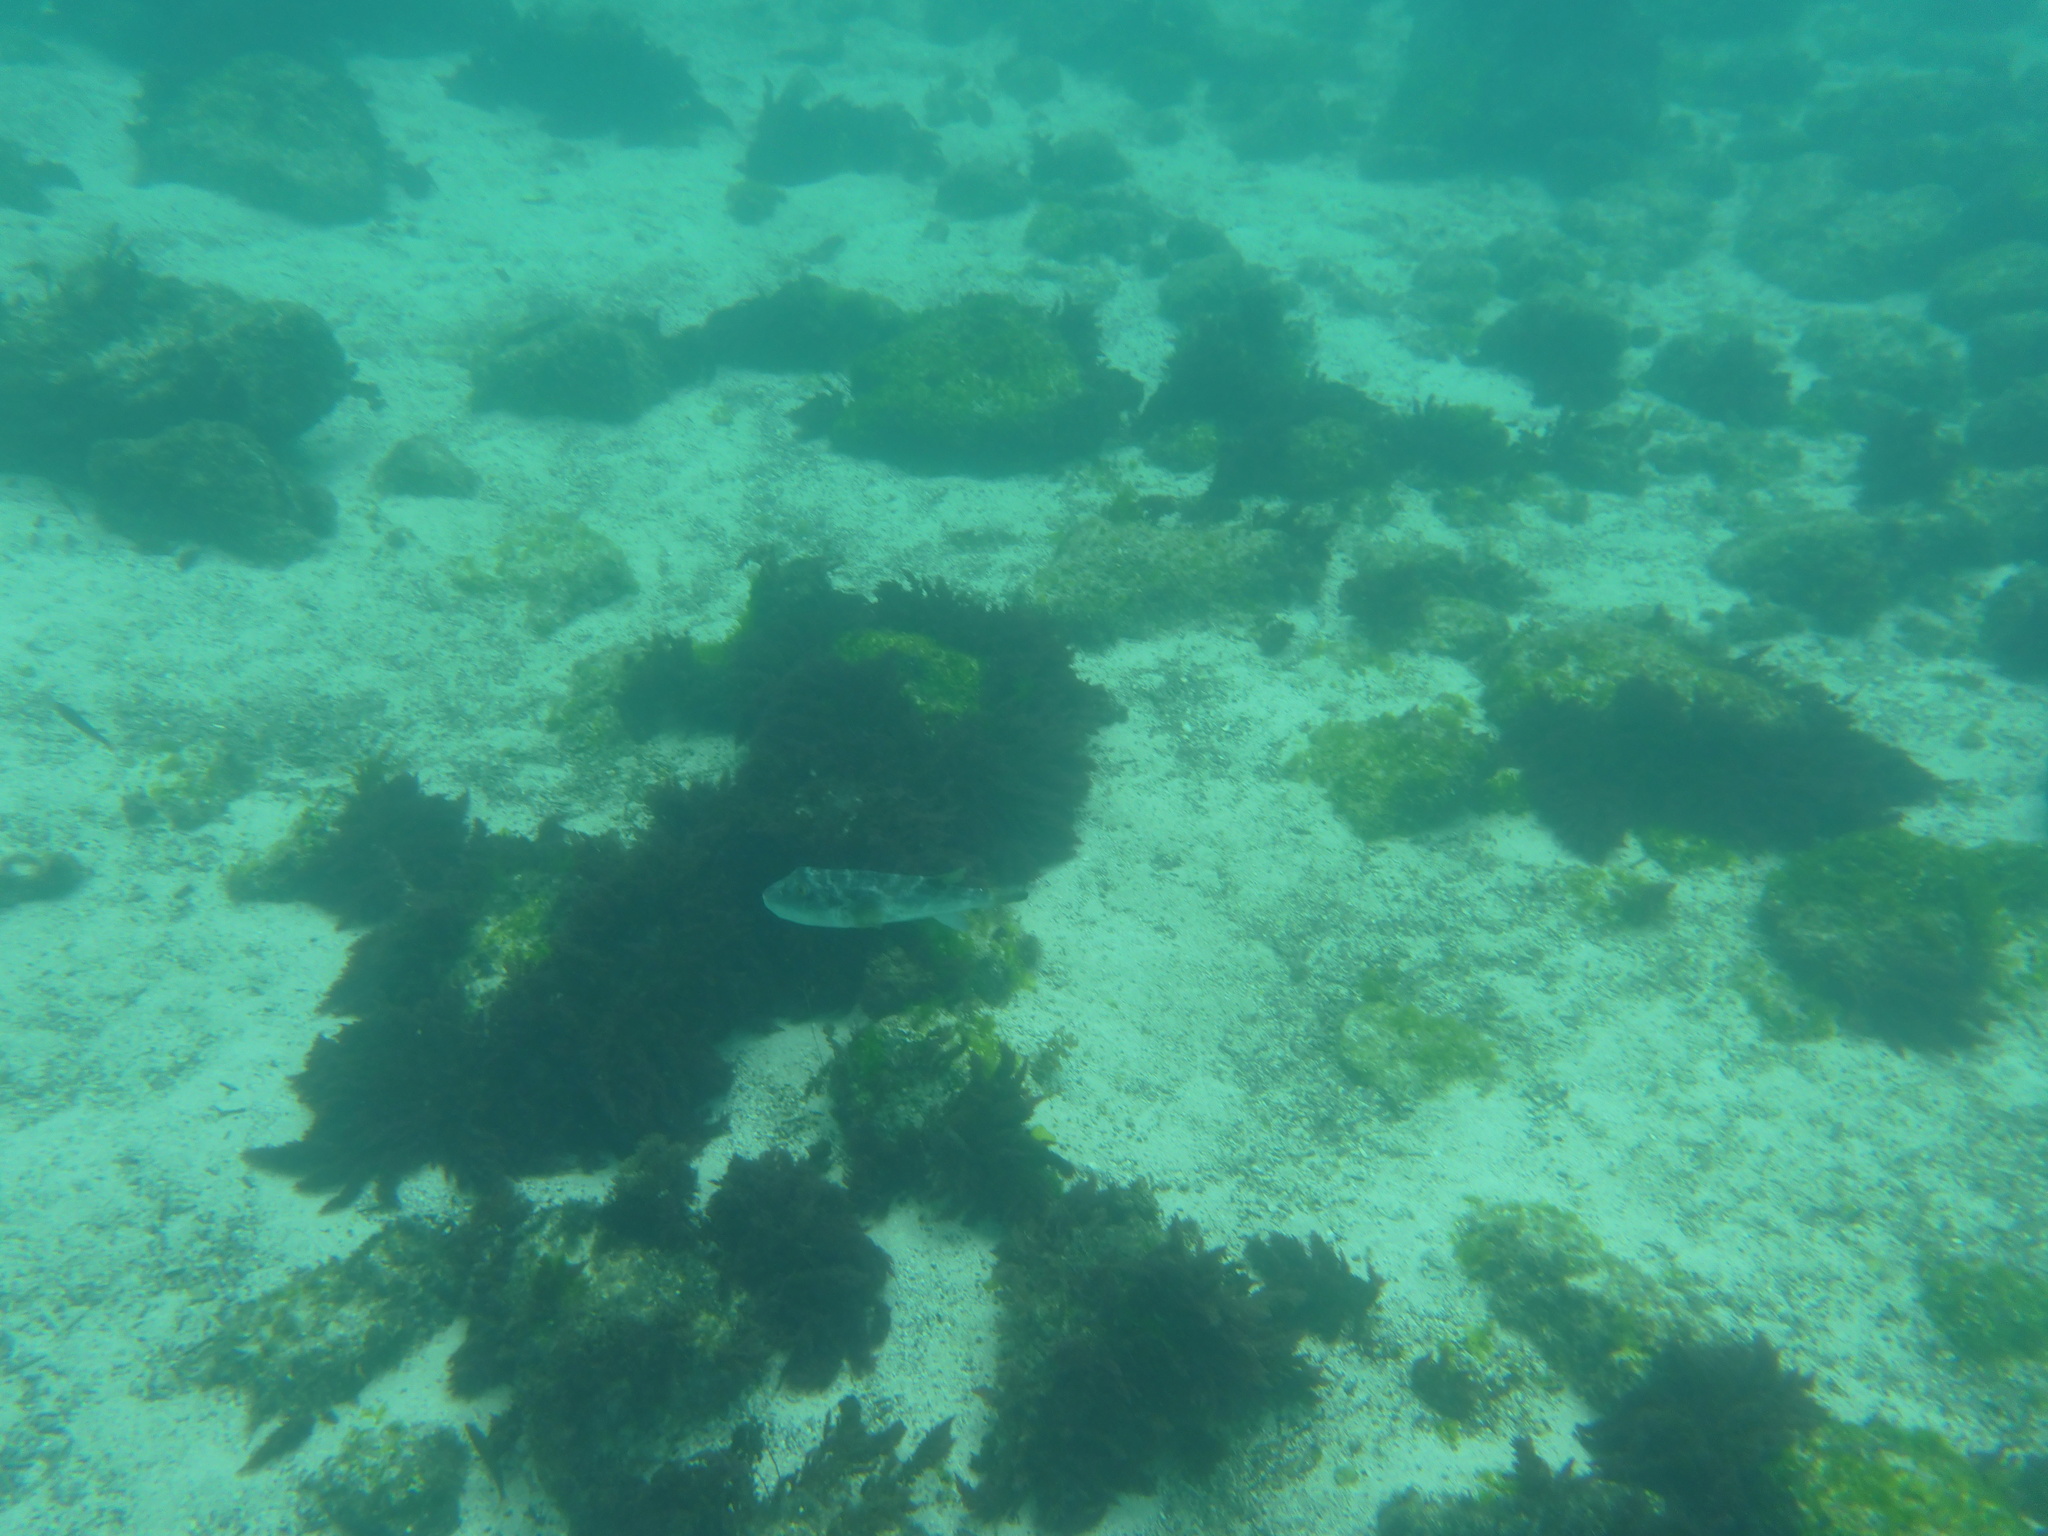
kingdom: Animalia
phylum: Chordata
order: Tetraodontiformes
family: Tetraodontidae
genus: Sphoeroides
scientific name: Sphoeroides annulatus
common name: Bullseye puffer
